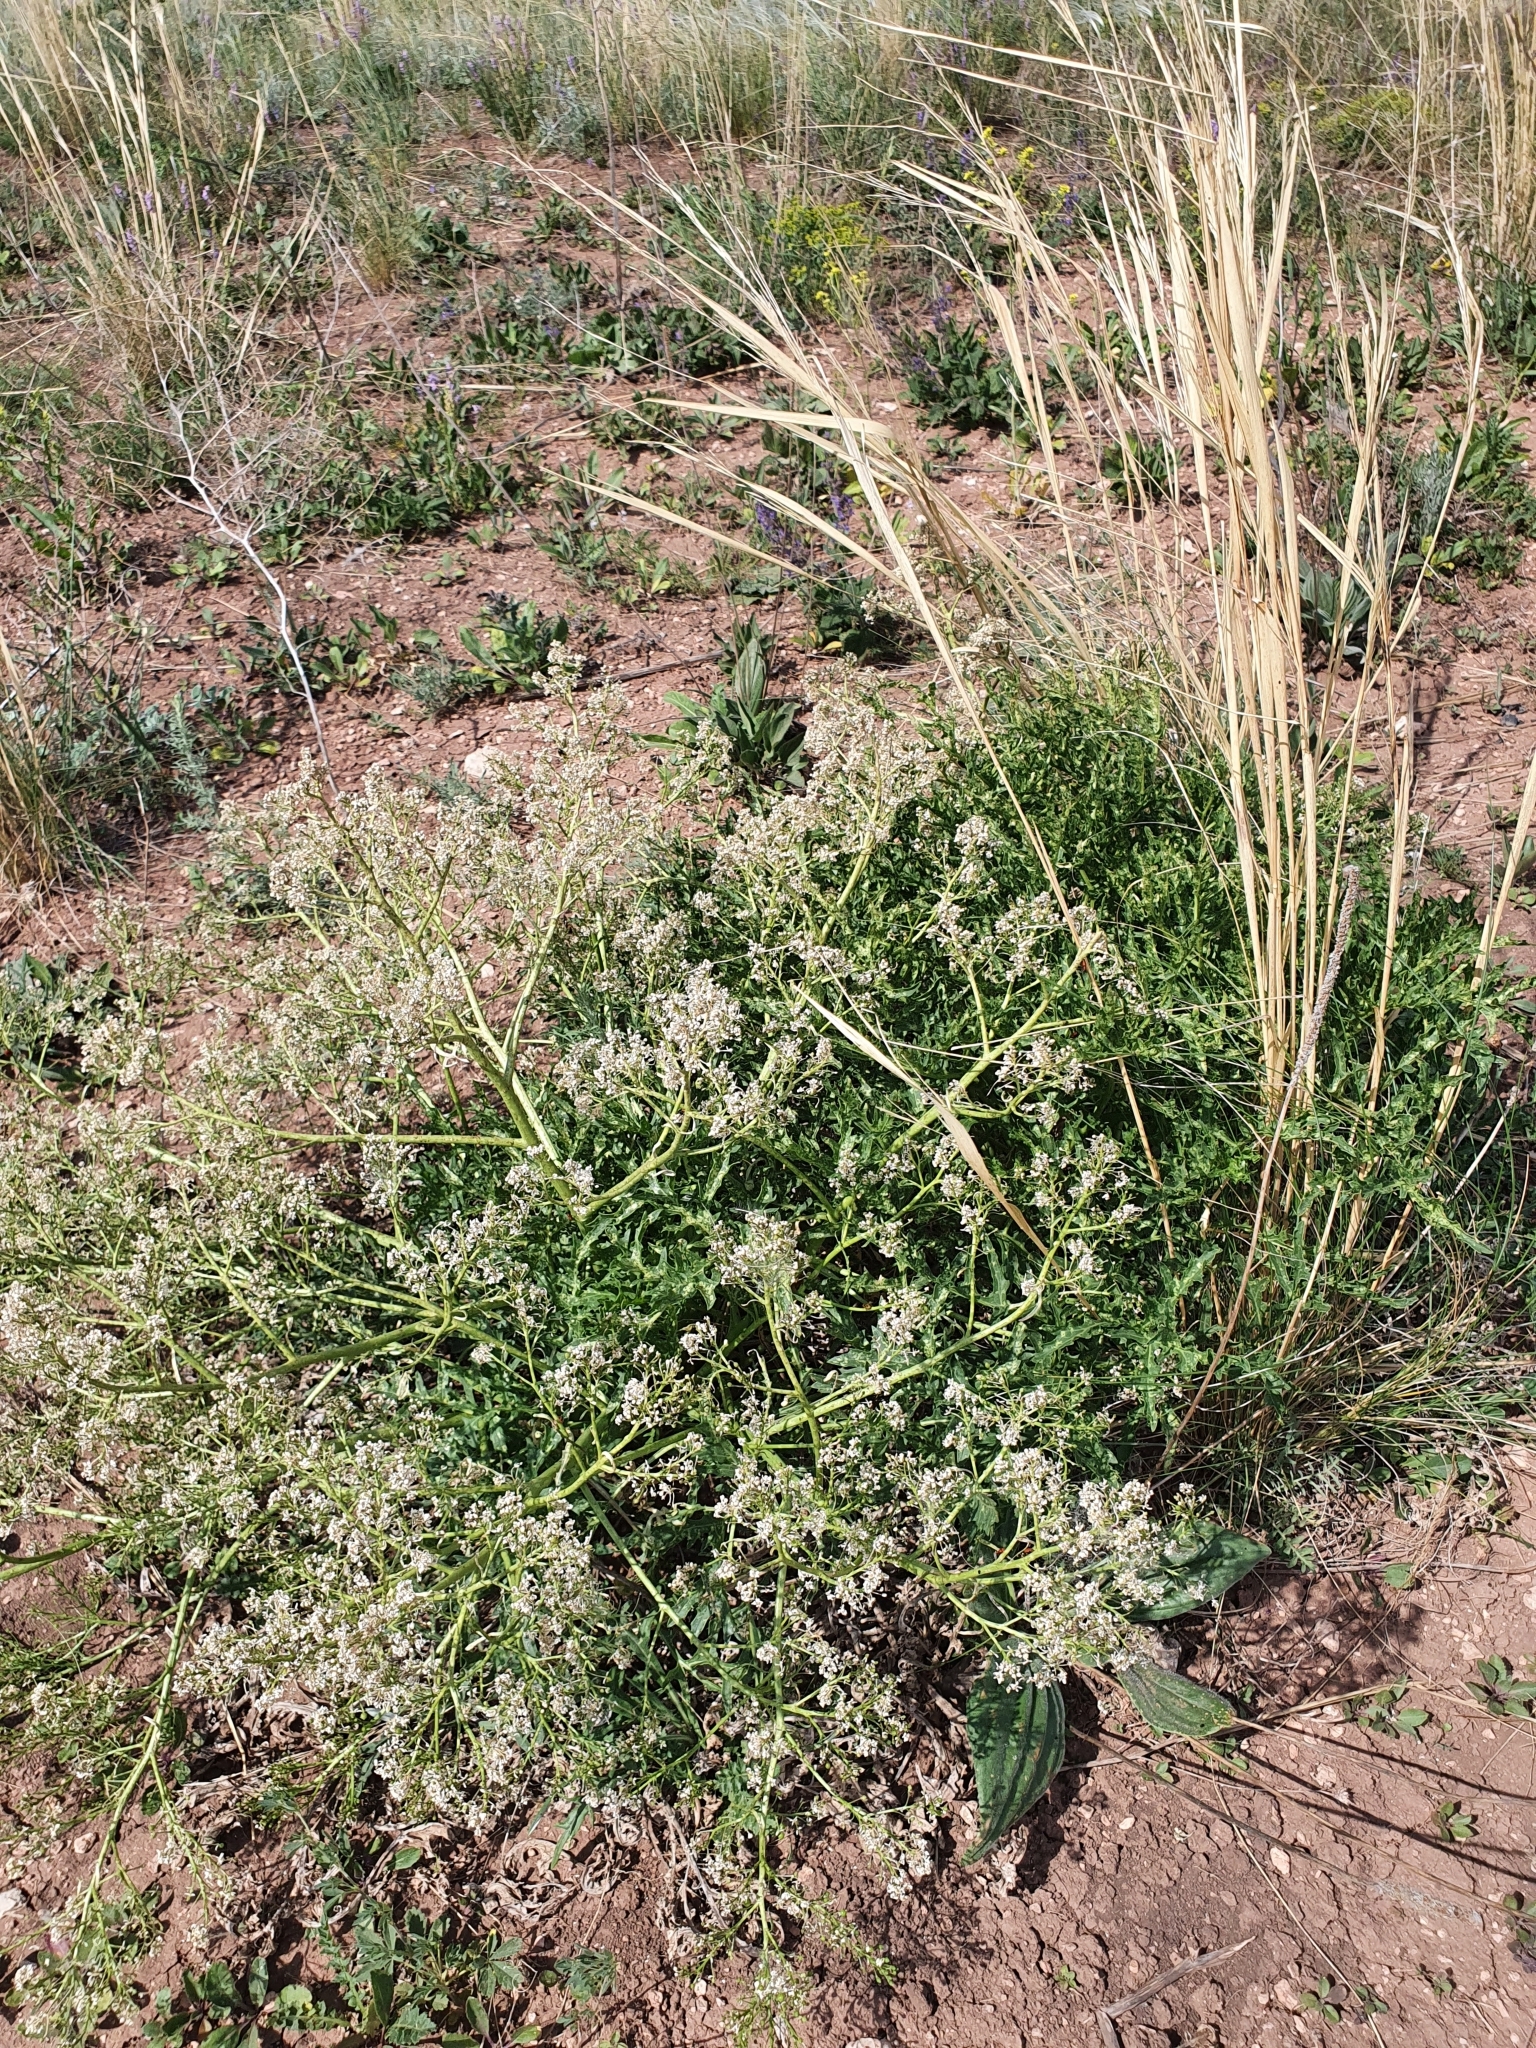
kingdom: Plantae
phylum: Tracheophyta
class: Magnoliopsida
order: Brassicales
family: Brassicaceae
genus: Crambe
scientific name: Crambe tataria
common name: Tartarian breadplant
